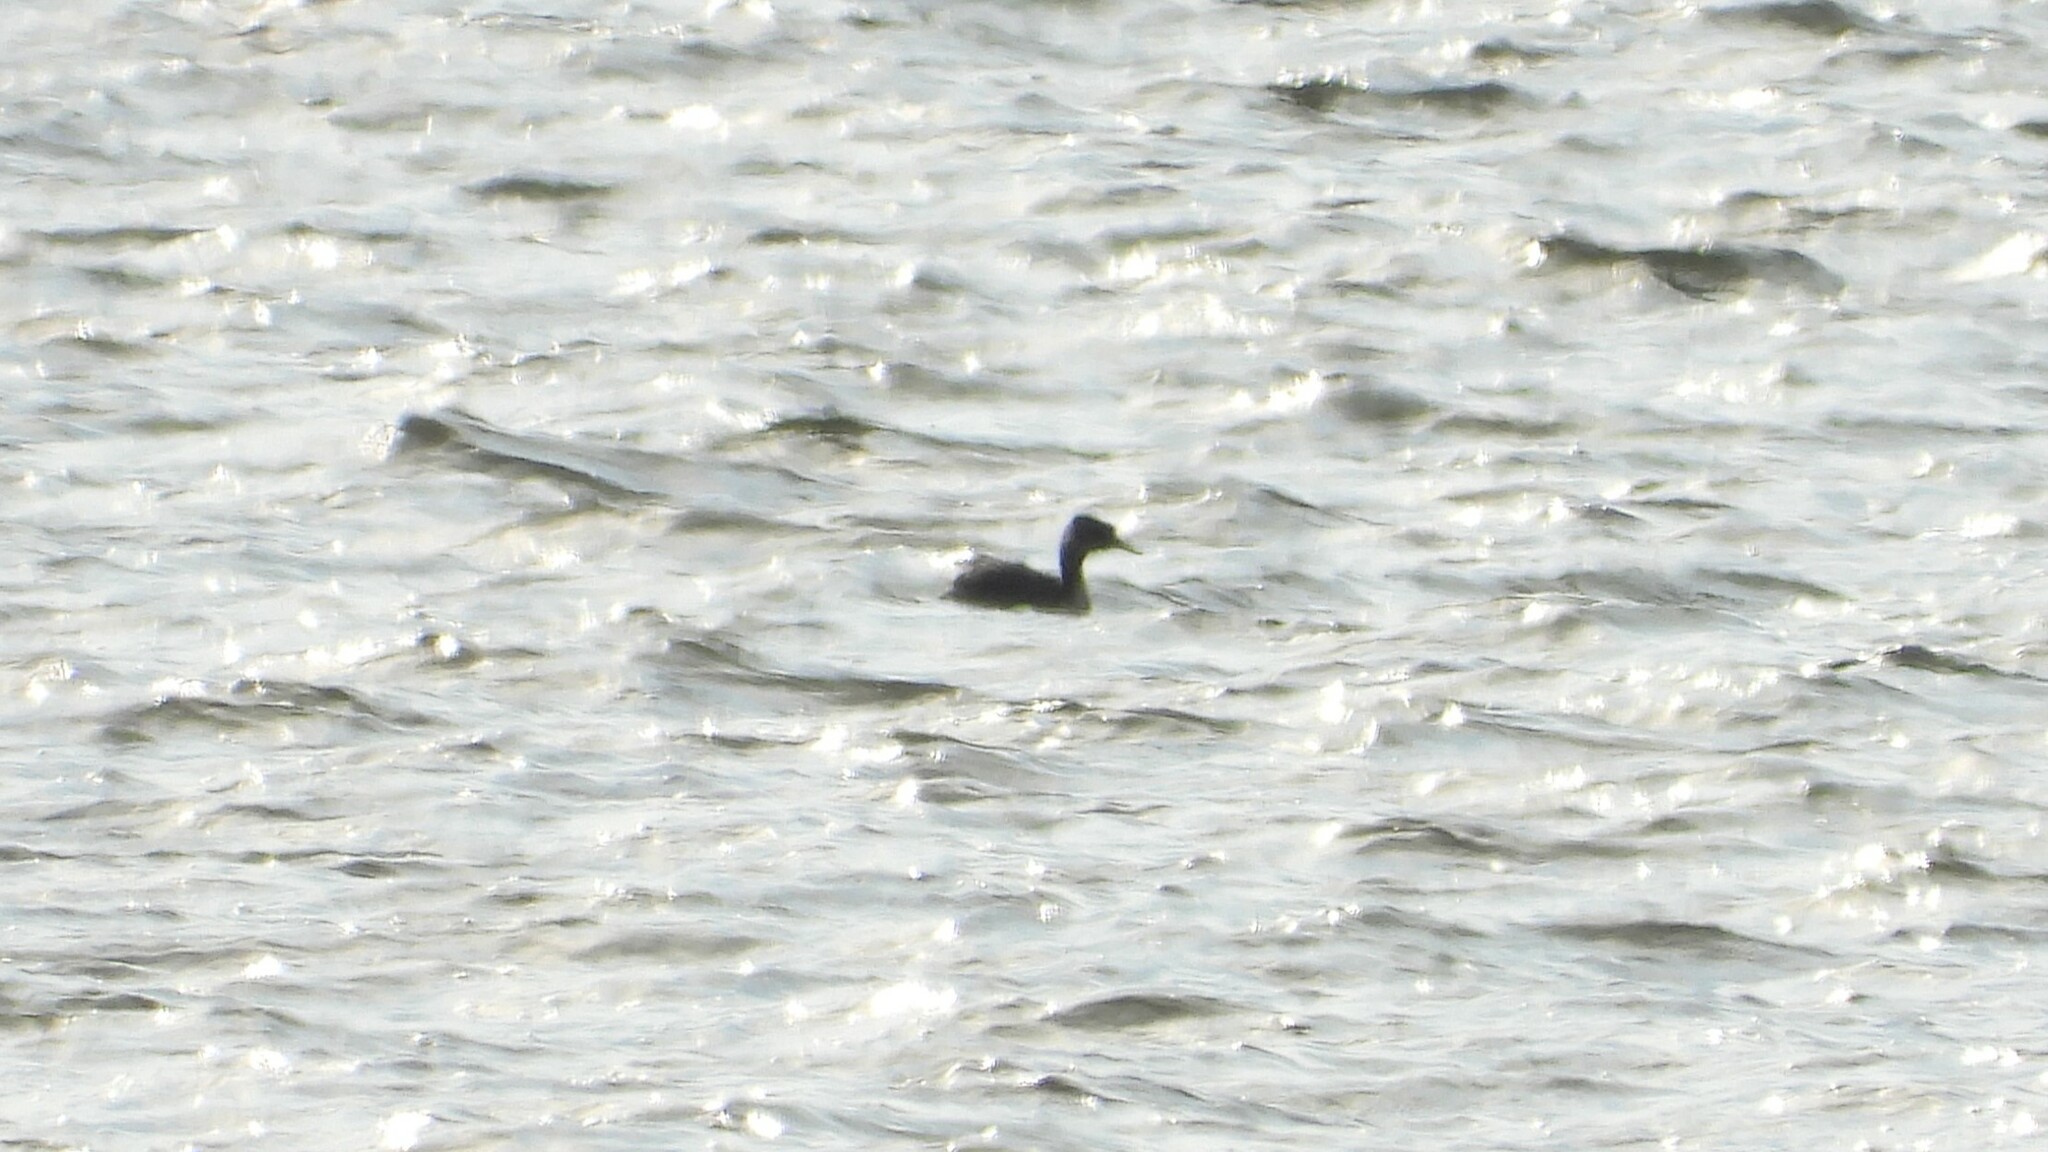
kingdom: Animalia
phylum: Chordata
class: Aves
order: Podicipediformes
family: Podicipedidae
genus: Podiceps
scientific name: Podiceps grisegena
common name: Red-necked grebe
